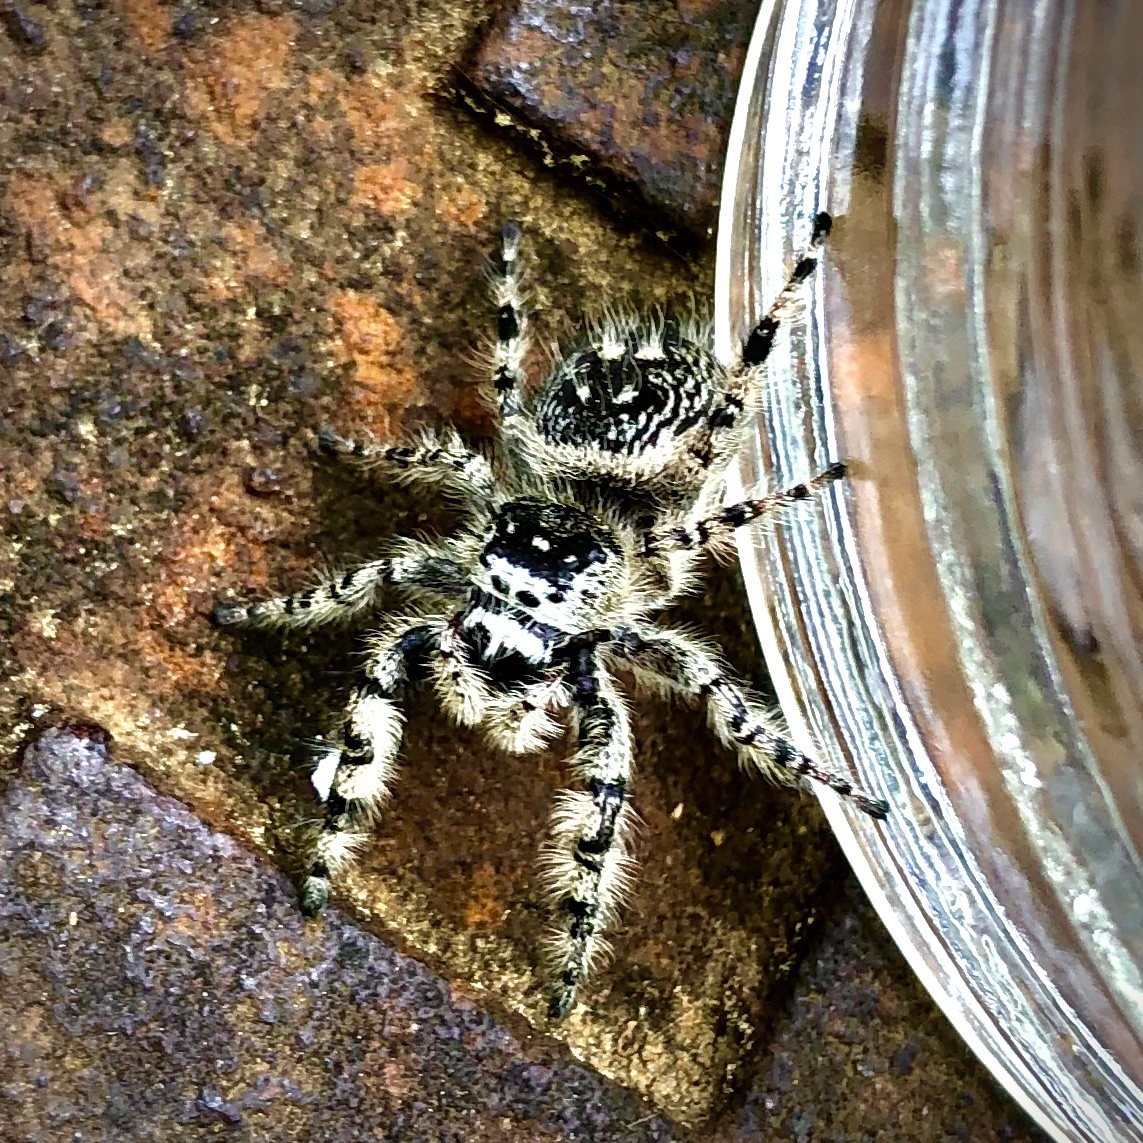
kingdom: Animalia
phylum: Arthropoda
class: Arachnida
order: Araneae
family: Salticidae
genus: Phidippus
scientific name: Phidippus otiosus
